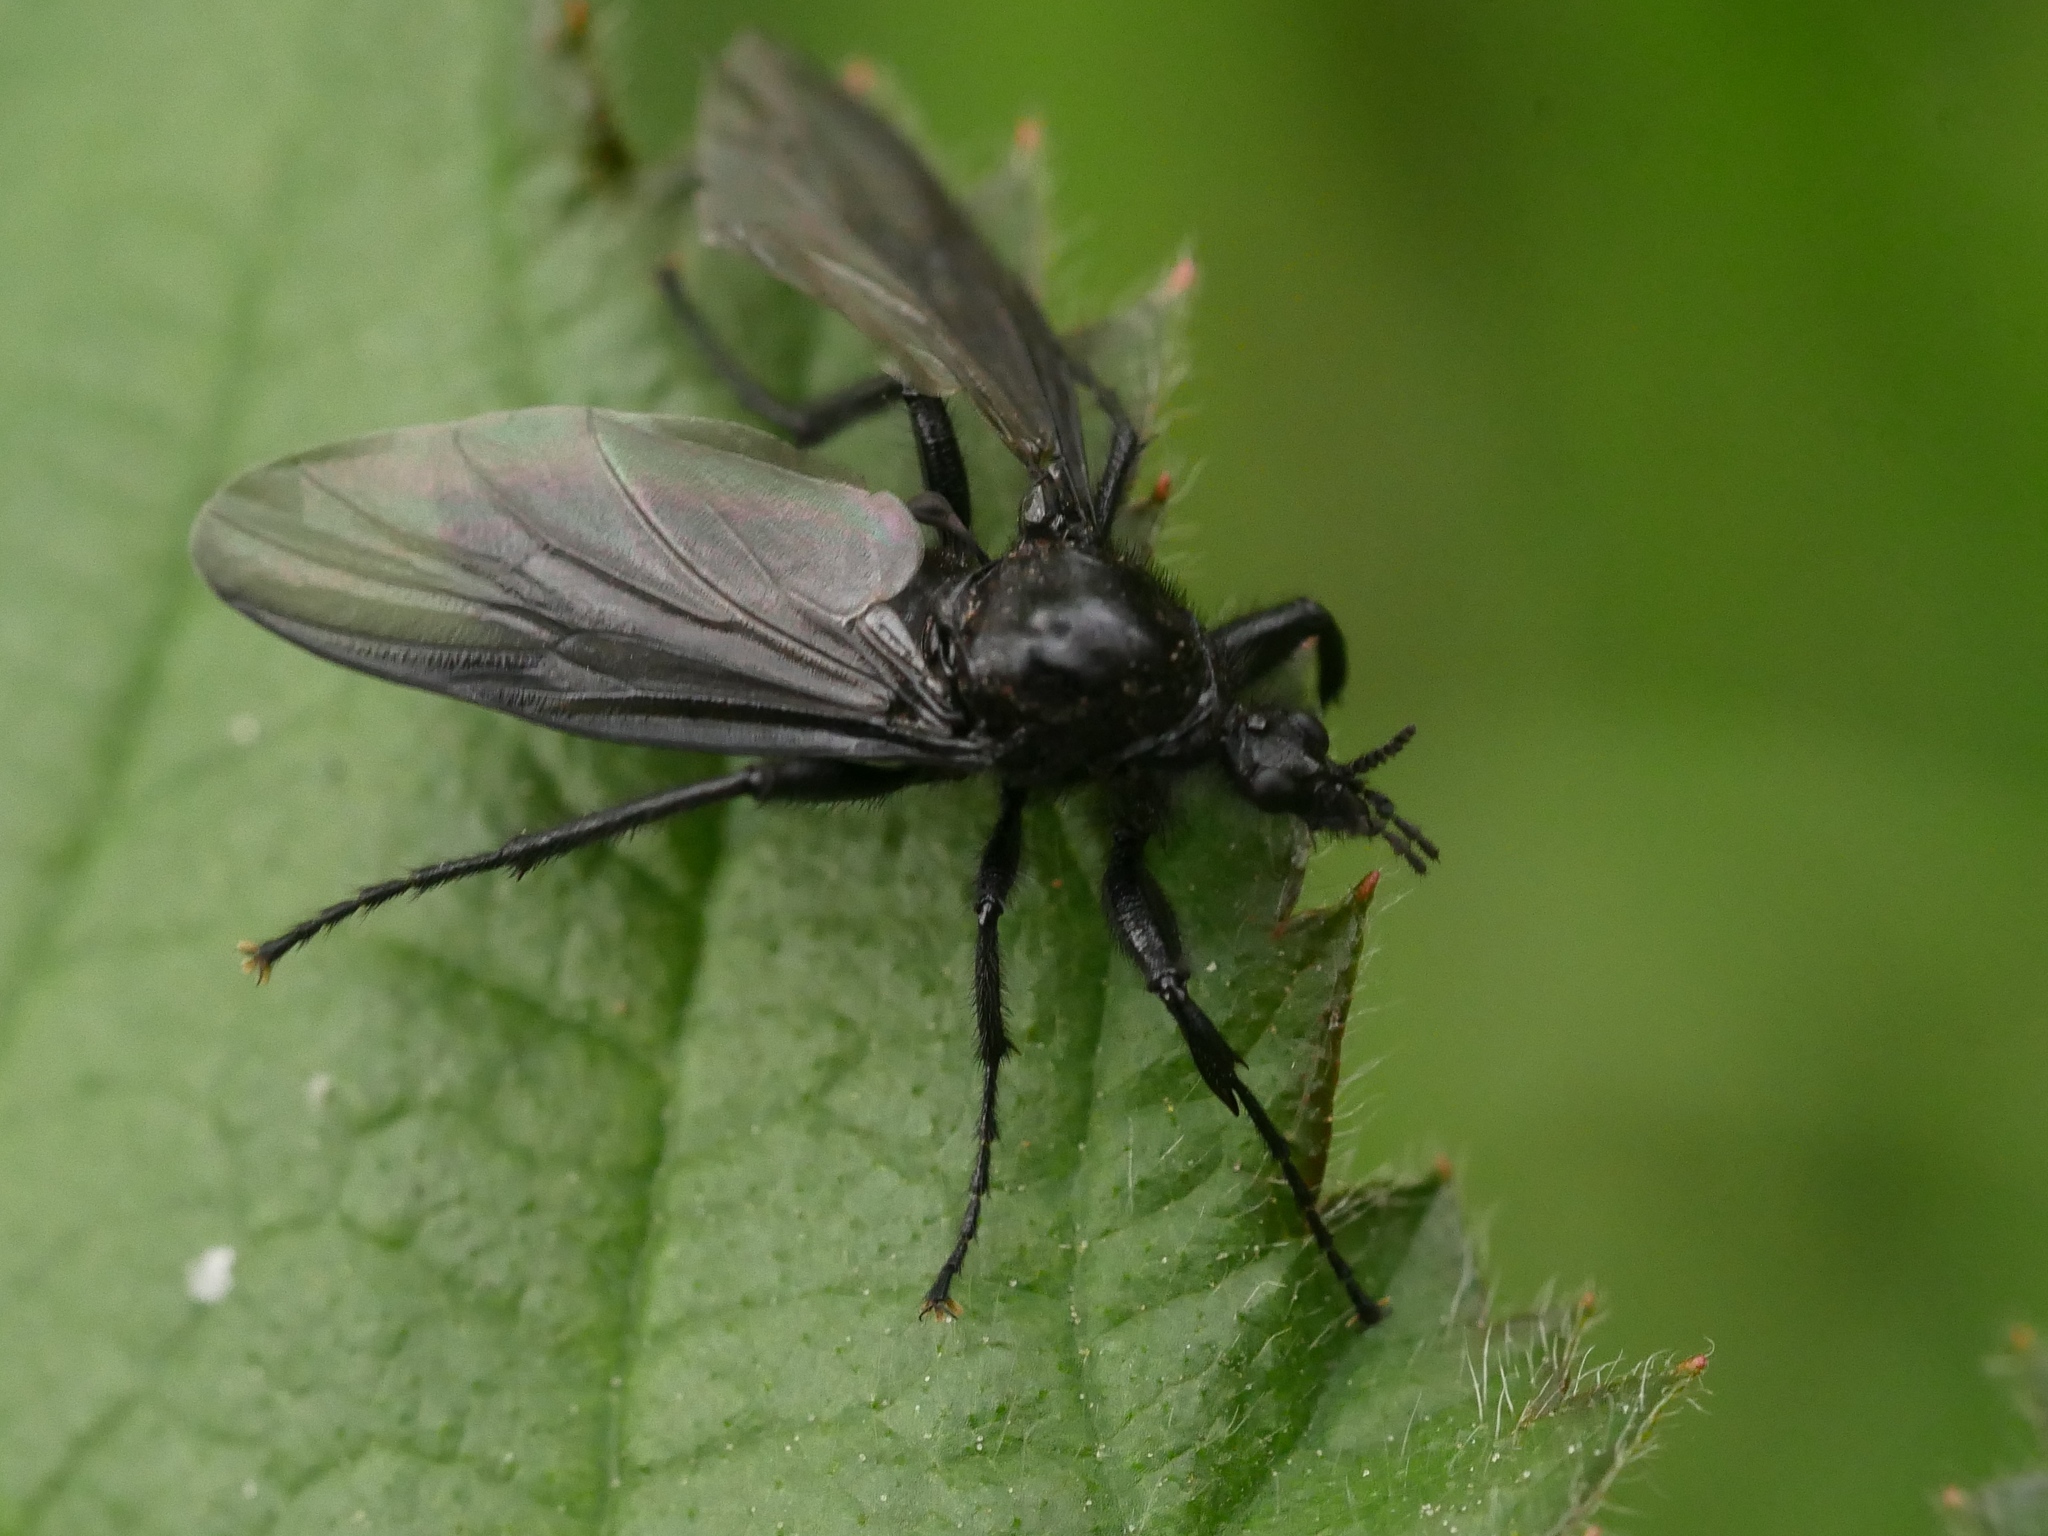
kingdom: Animalia
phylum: Arthropoda
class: Insecta
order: Diptera
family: Bibionidae
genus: Bibio
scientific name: Bibio marci
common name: St marks fly
